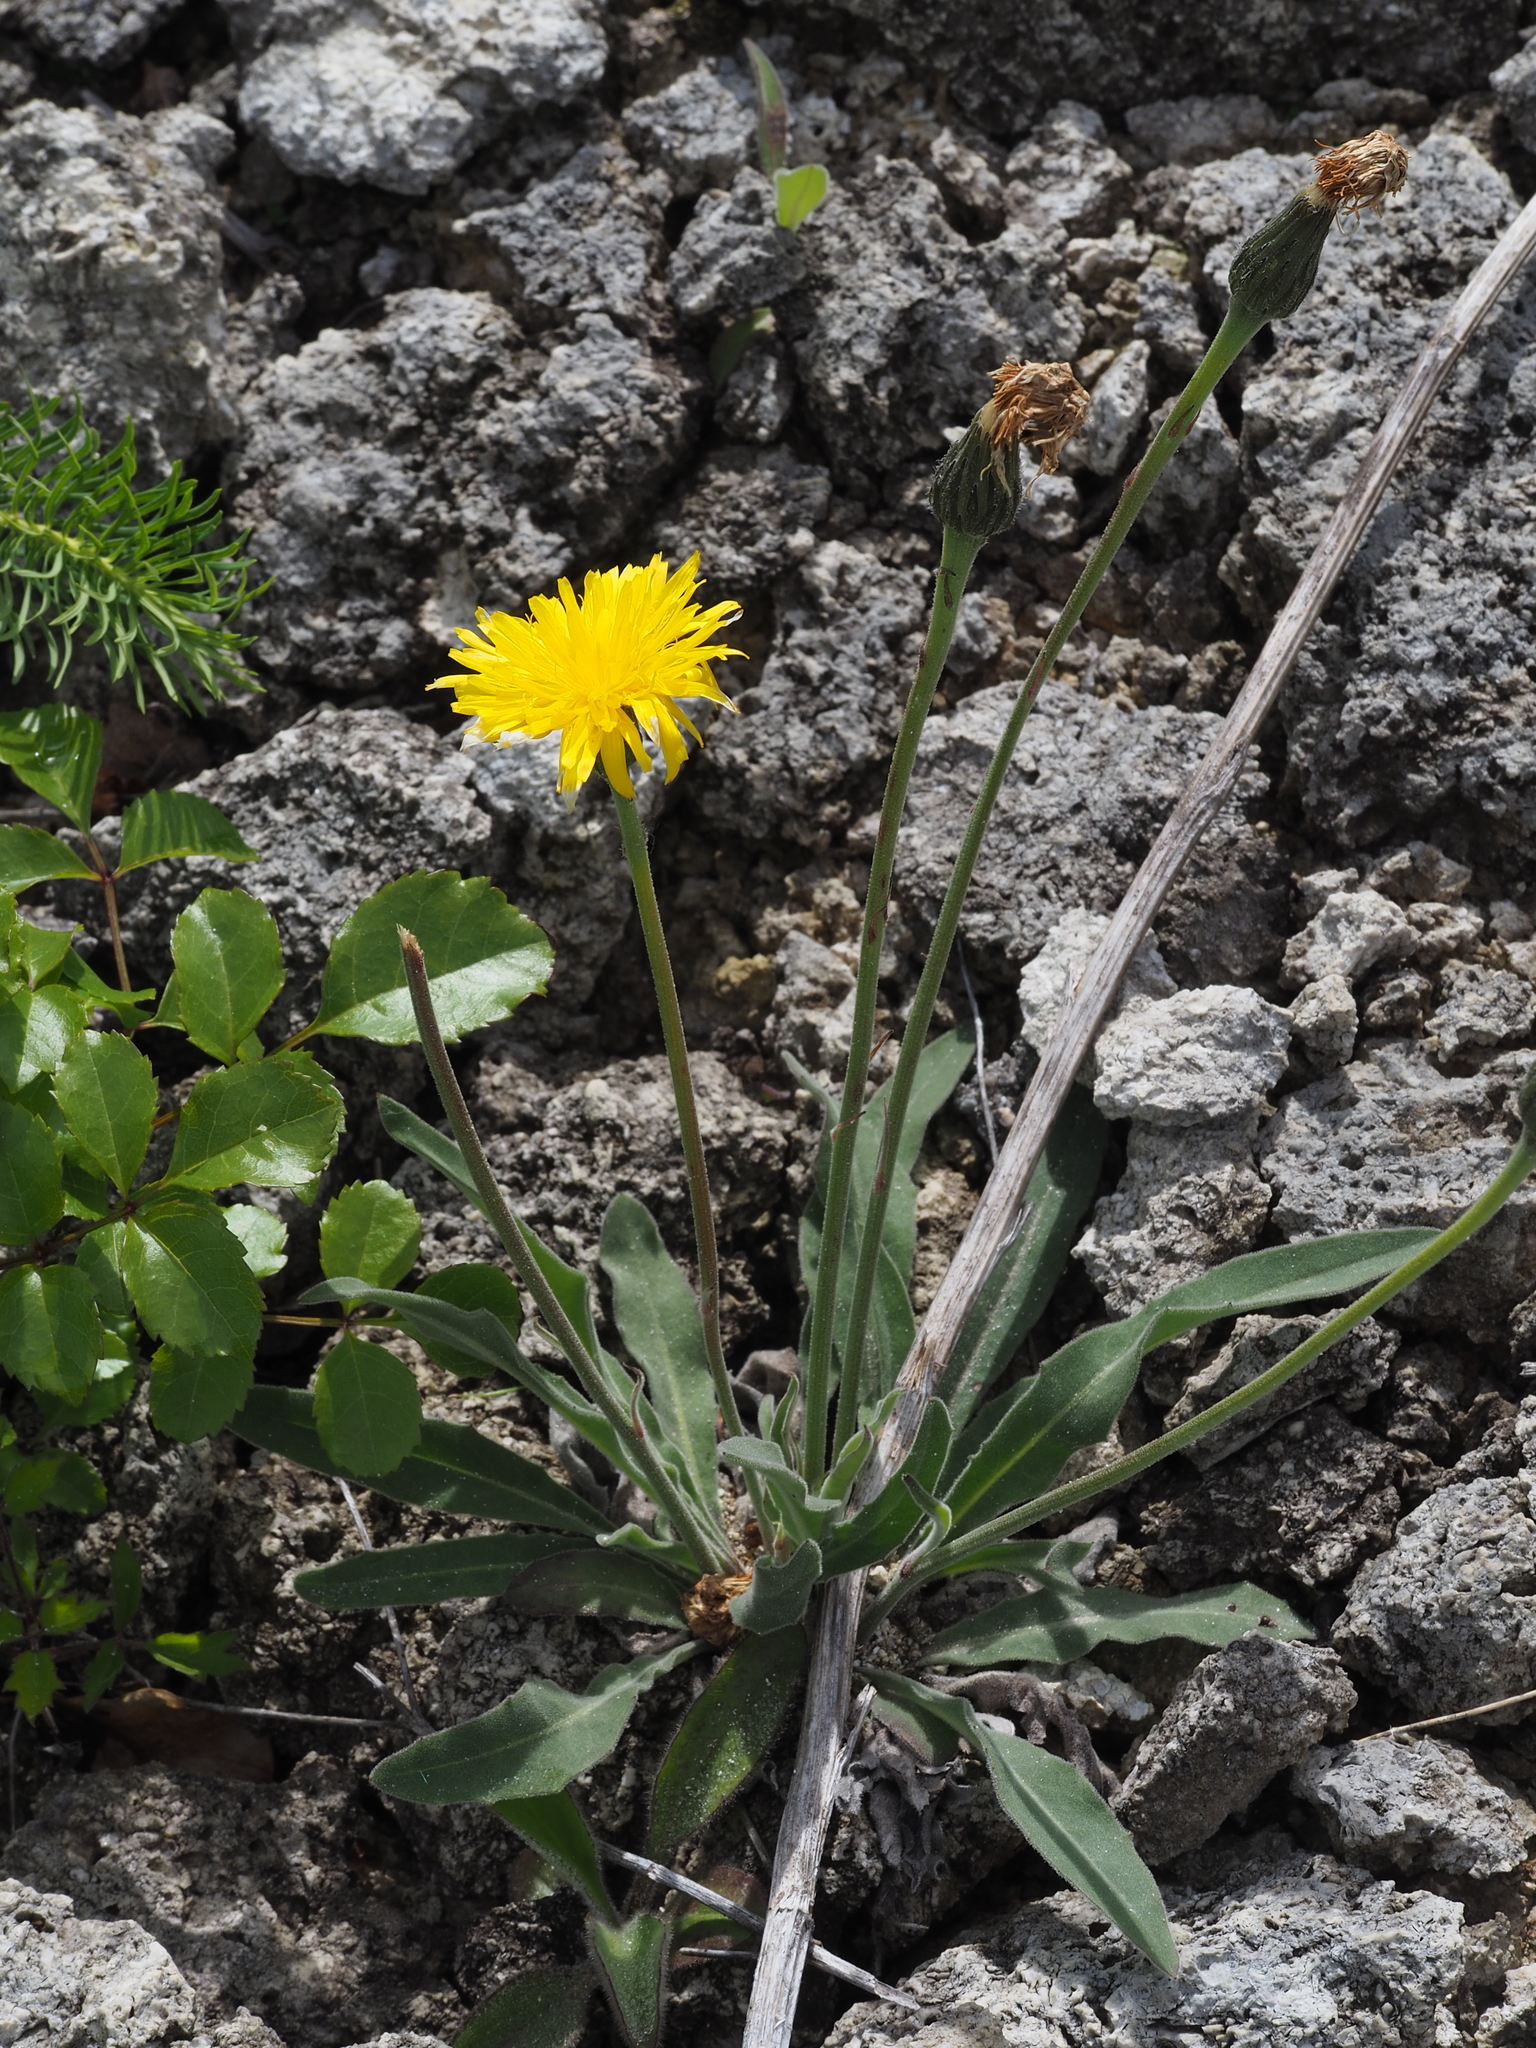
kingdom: Plantae
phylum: Tracheophyta
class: Magnoliopsida
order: Asterales
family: Asteraceae
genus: Leontodon
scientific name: Leontodon incanus
